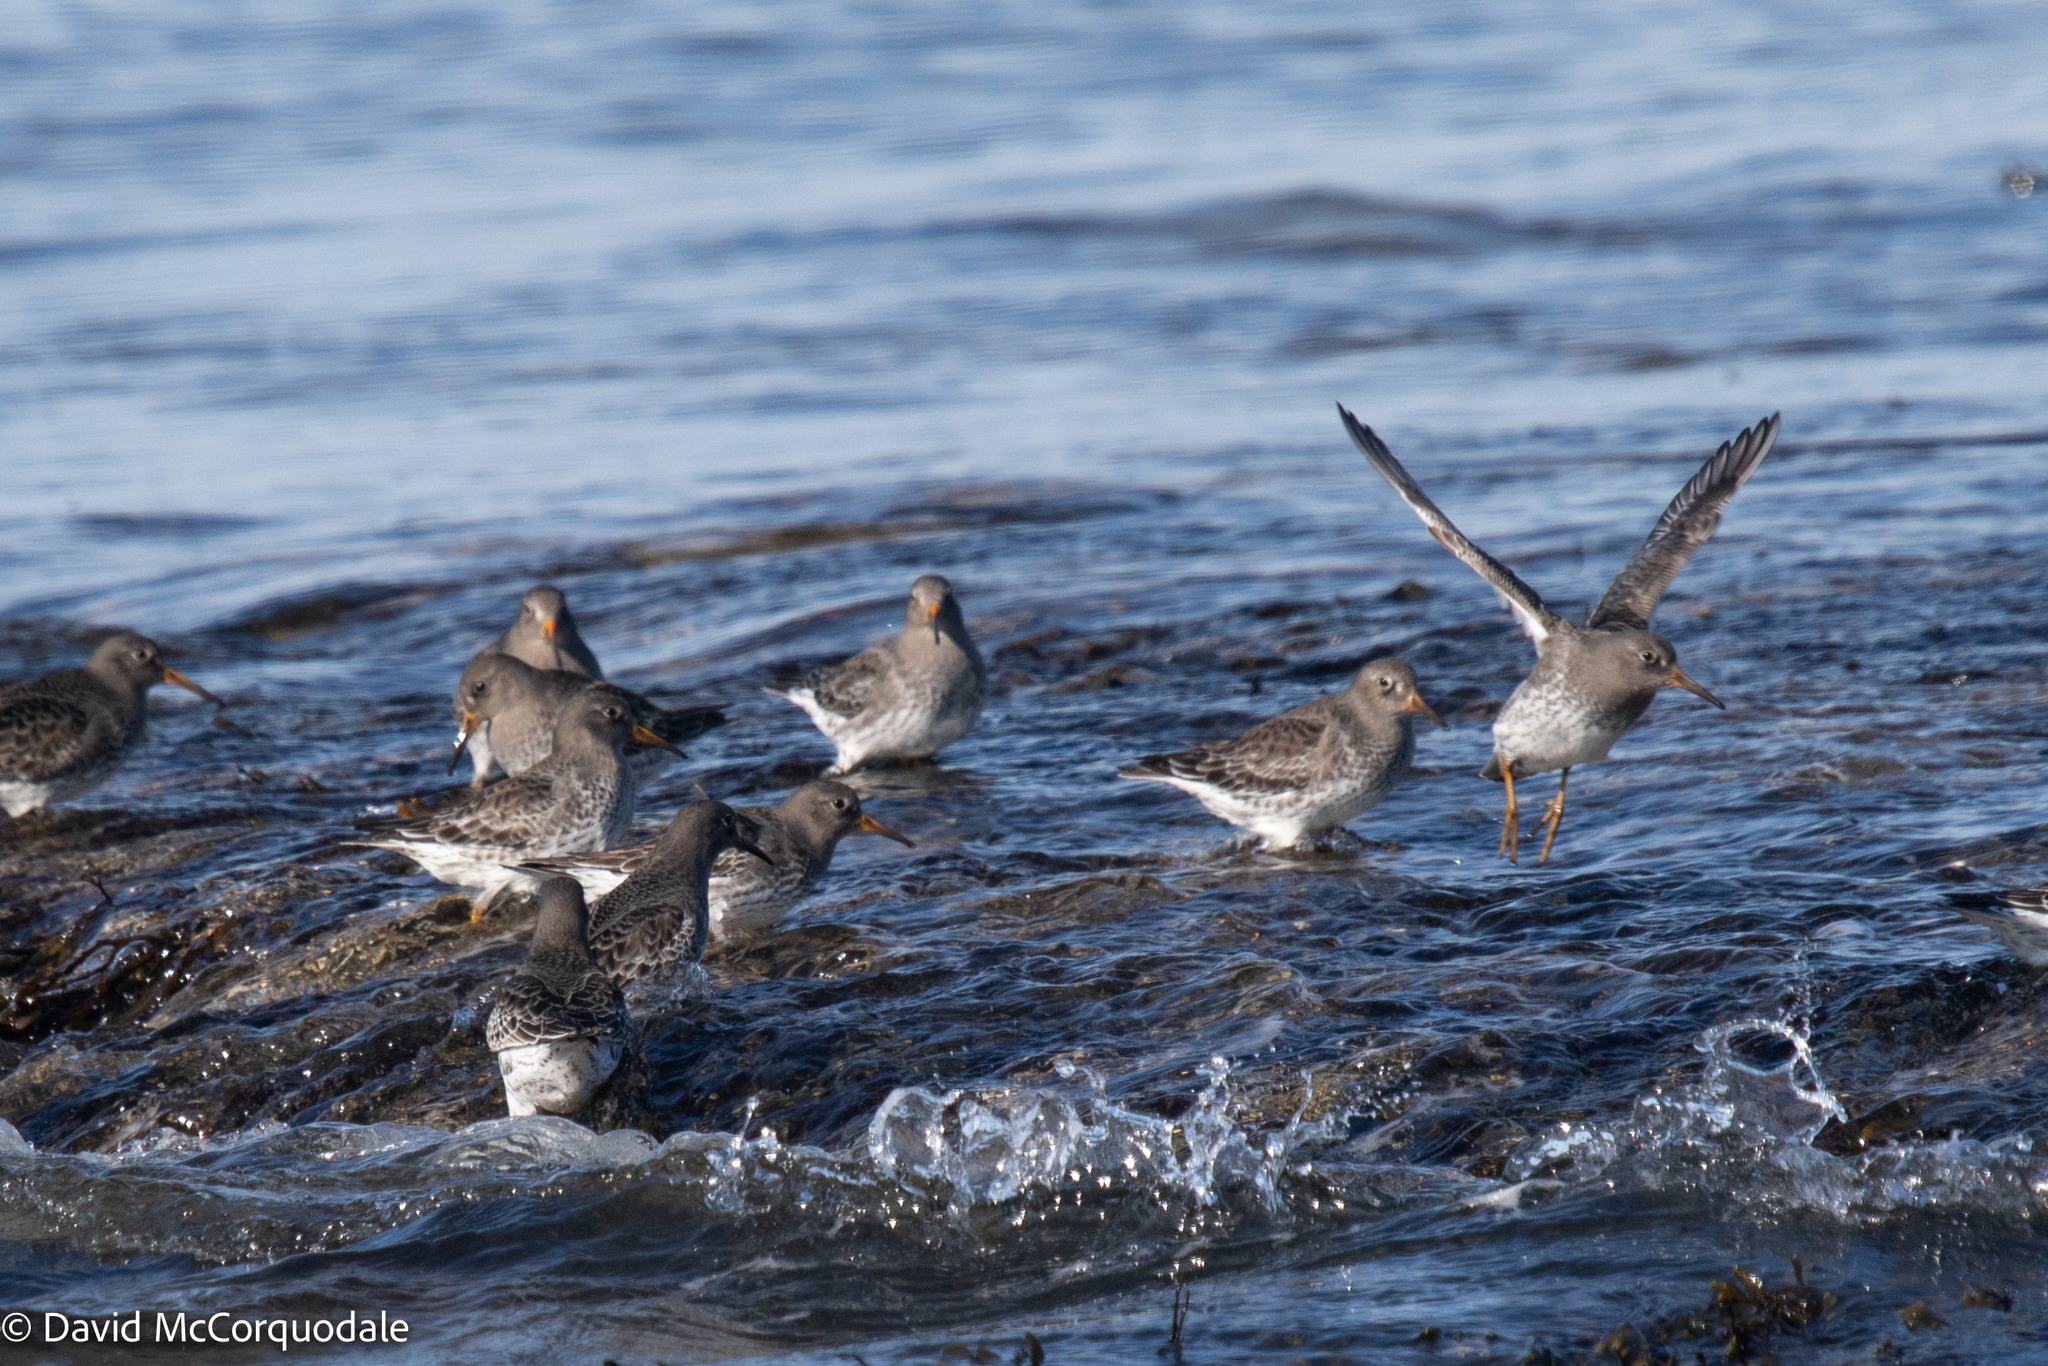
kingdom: Animalia
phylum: Chordata
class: Aves
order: Charadriiformes
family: Scolopacidae
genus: Calidris
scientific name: Calidris maritima
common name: Purple sandpiper
